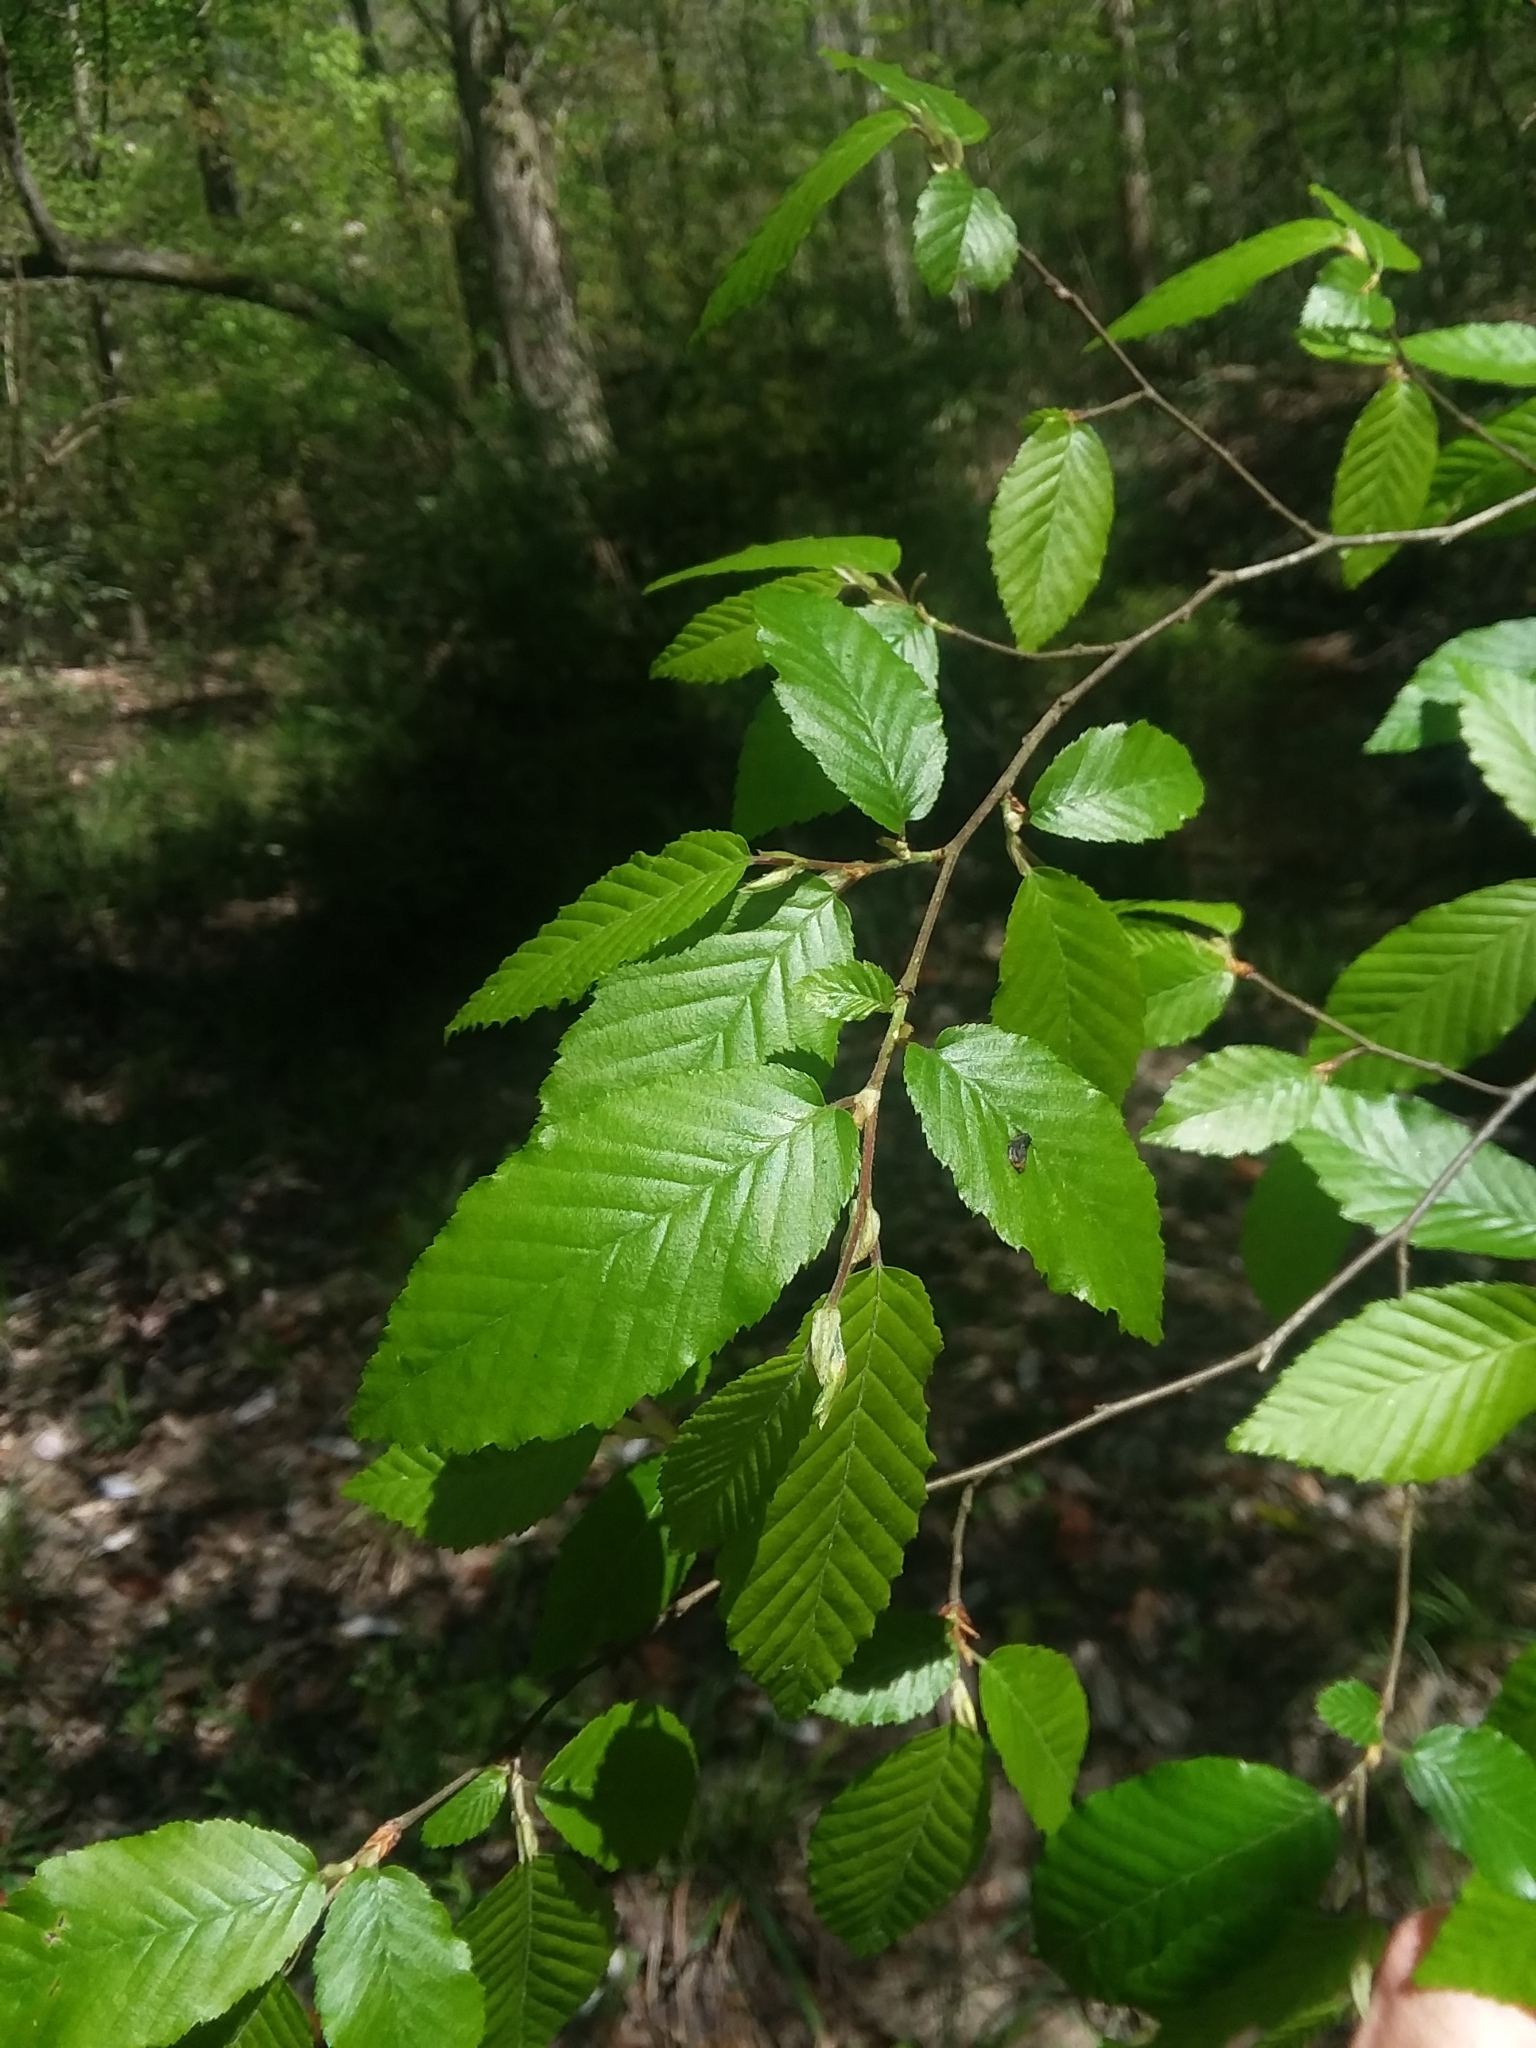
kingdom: Plantae
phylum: Tracheophyta
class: Magnoliopsida
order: Fagales
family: Betulaceae
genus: Carpinus
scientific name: Carpinus caroliniana
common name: American hornbeam
